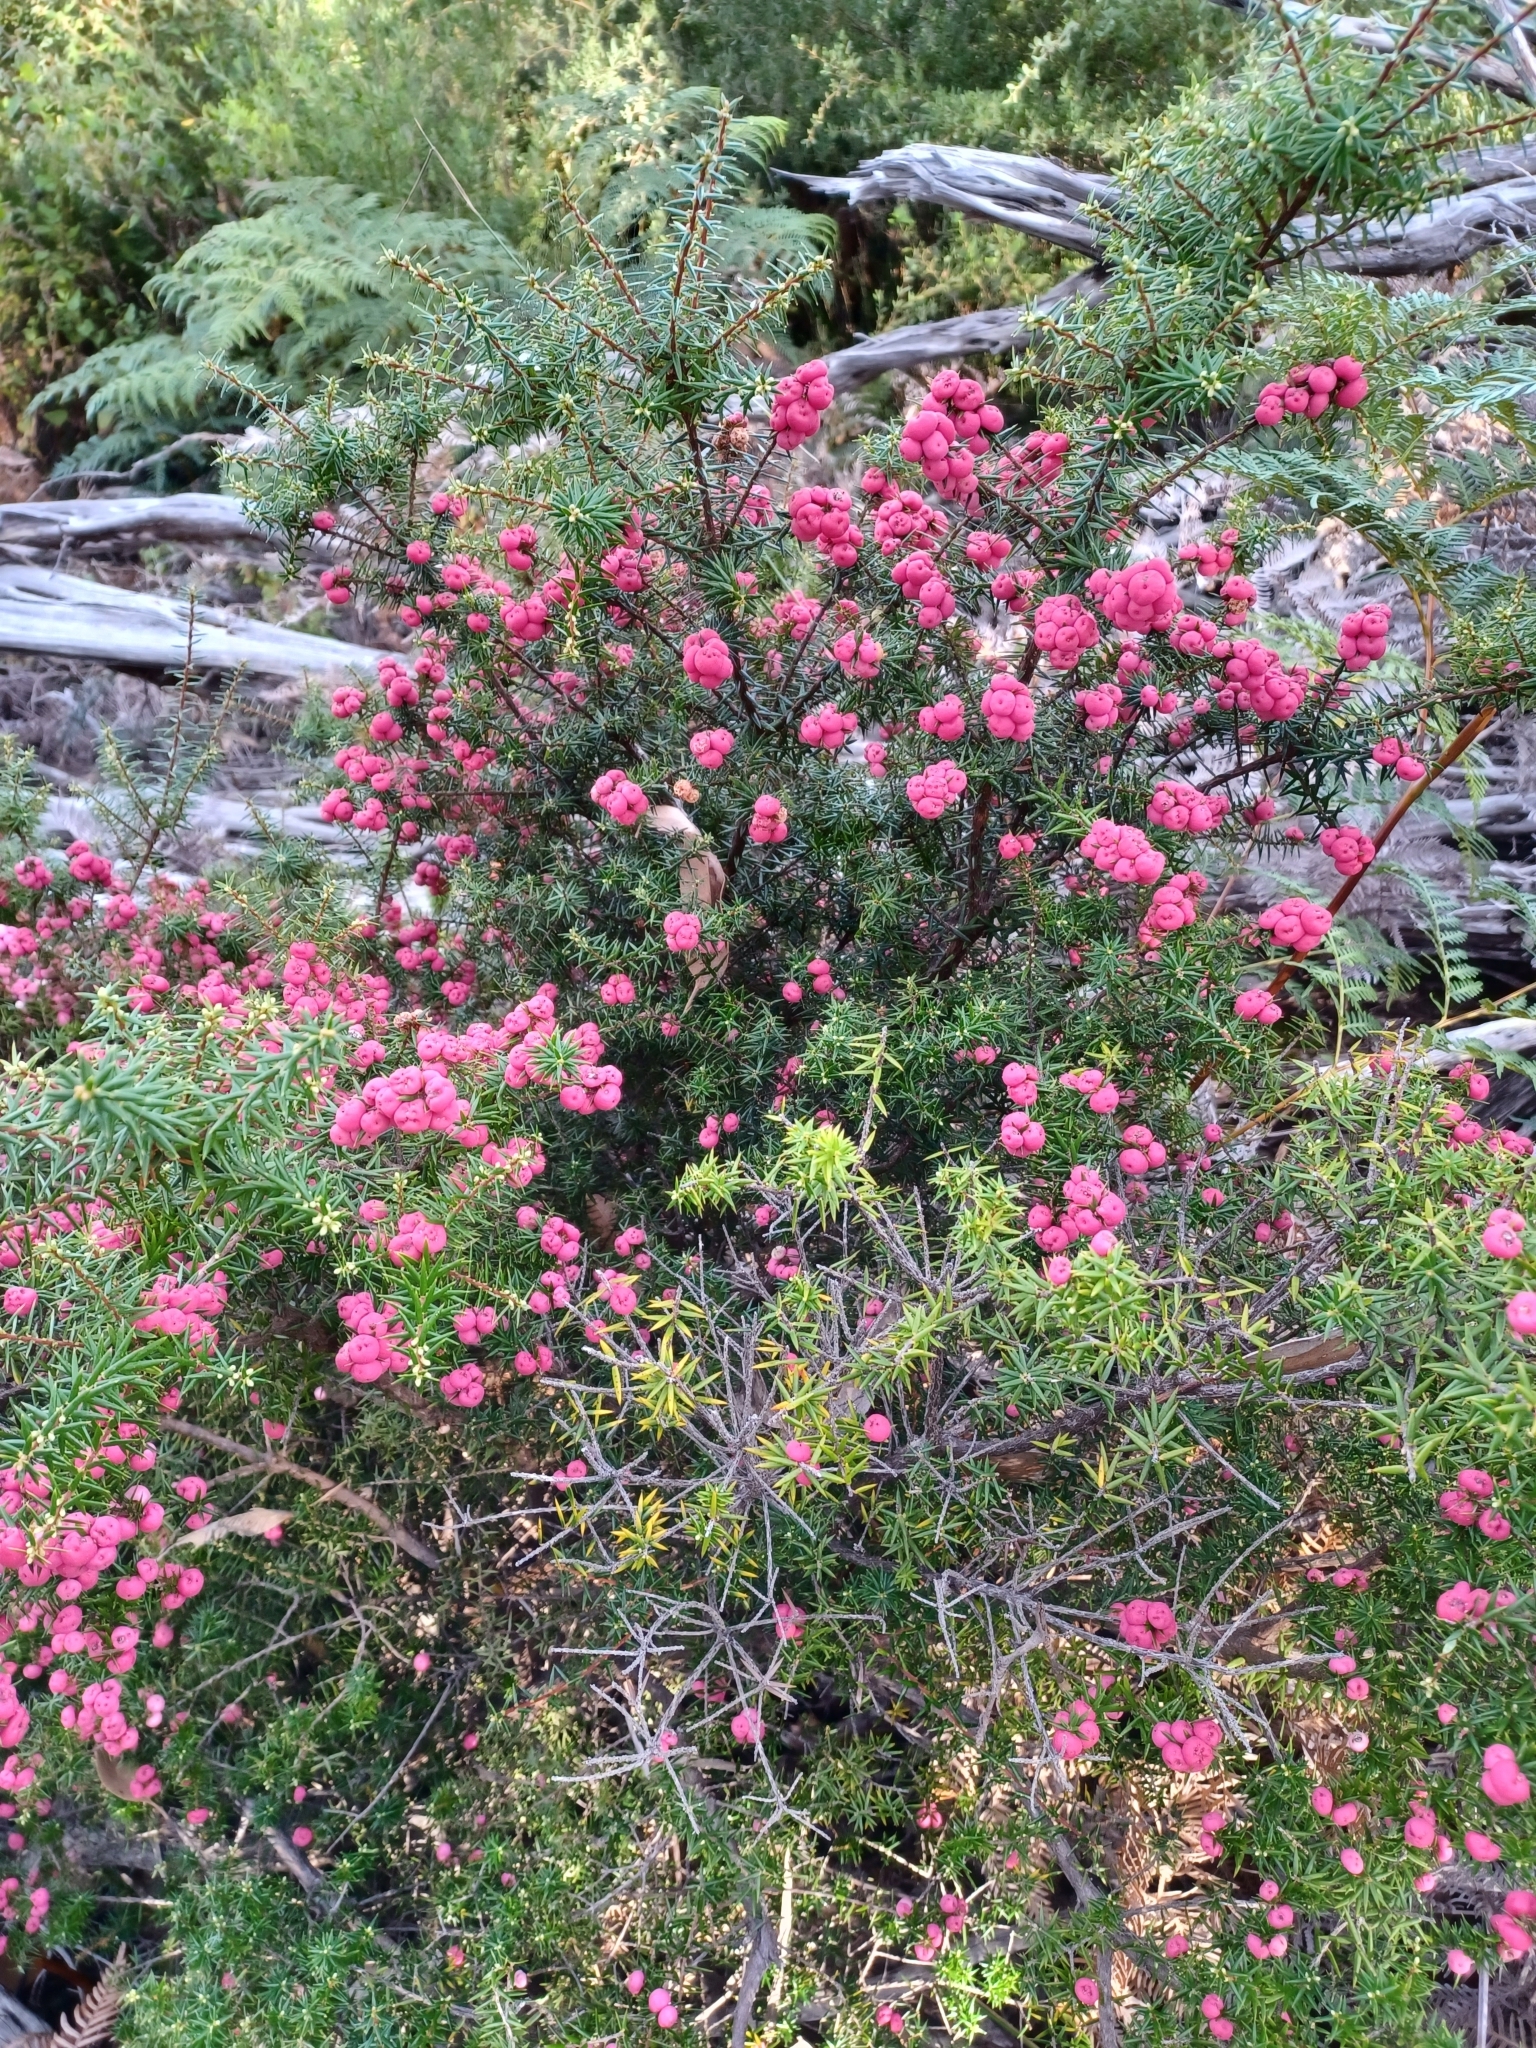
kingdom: Plantae
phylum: Tracheophyta
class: Magnoliopsida
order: Ericales
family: Ericaceae
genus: Leptecophylla
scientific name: Leptecophylla oxycedrus
